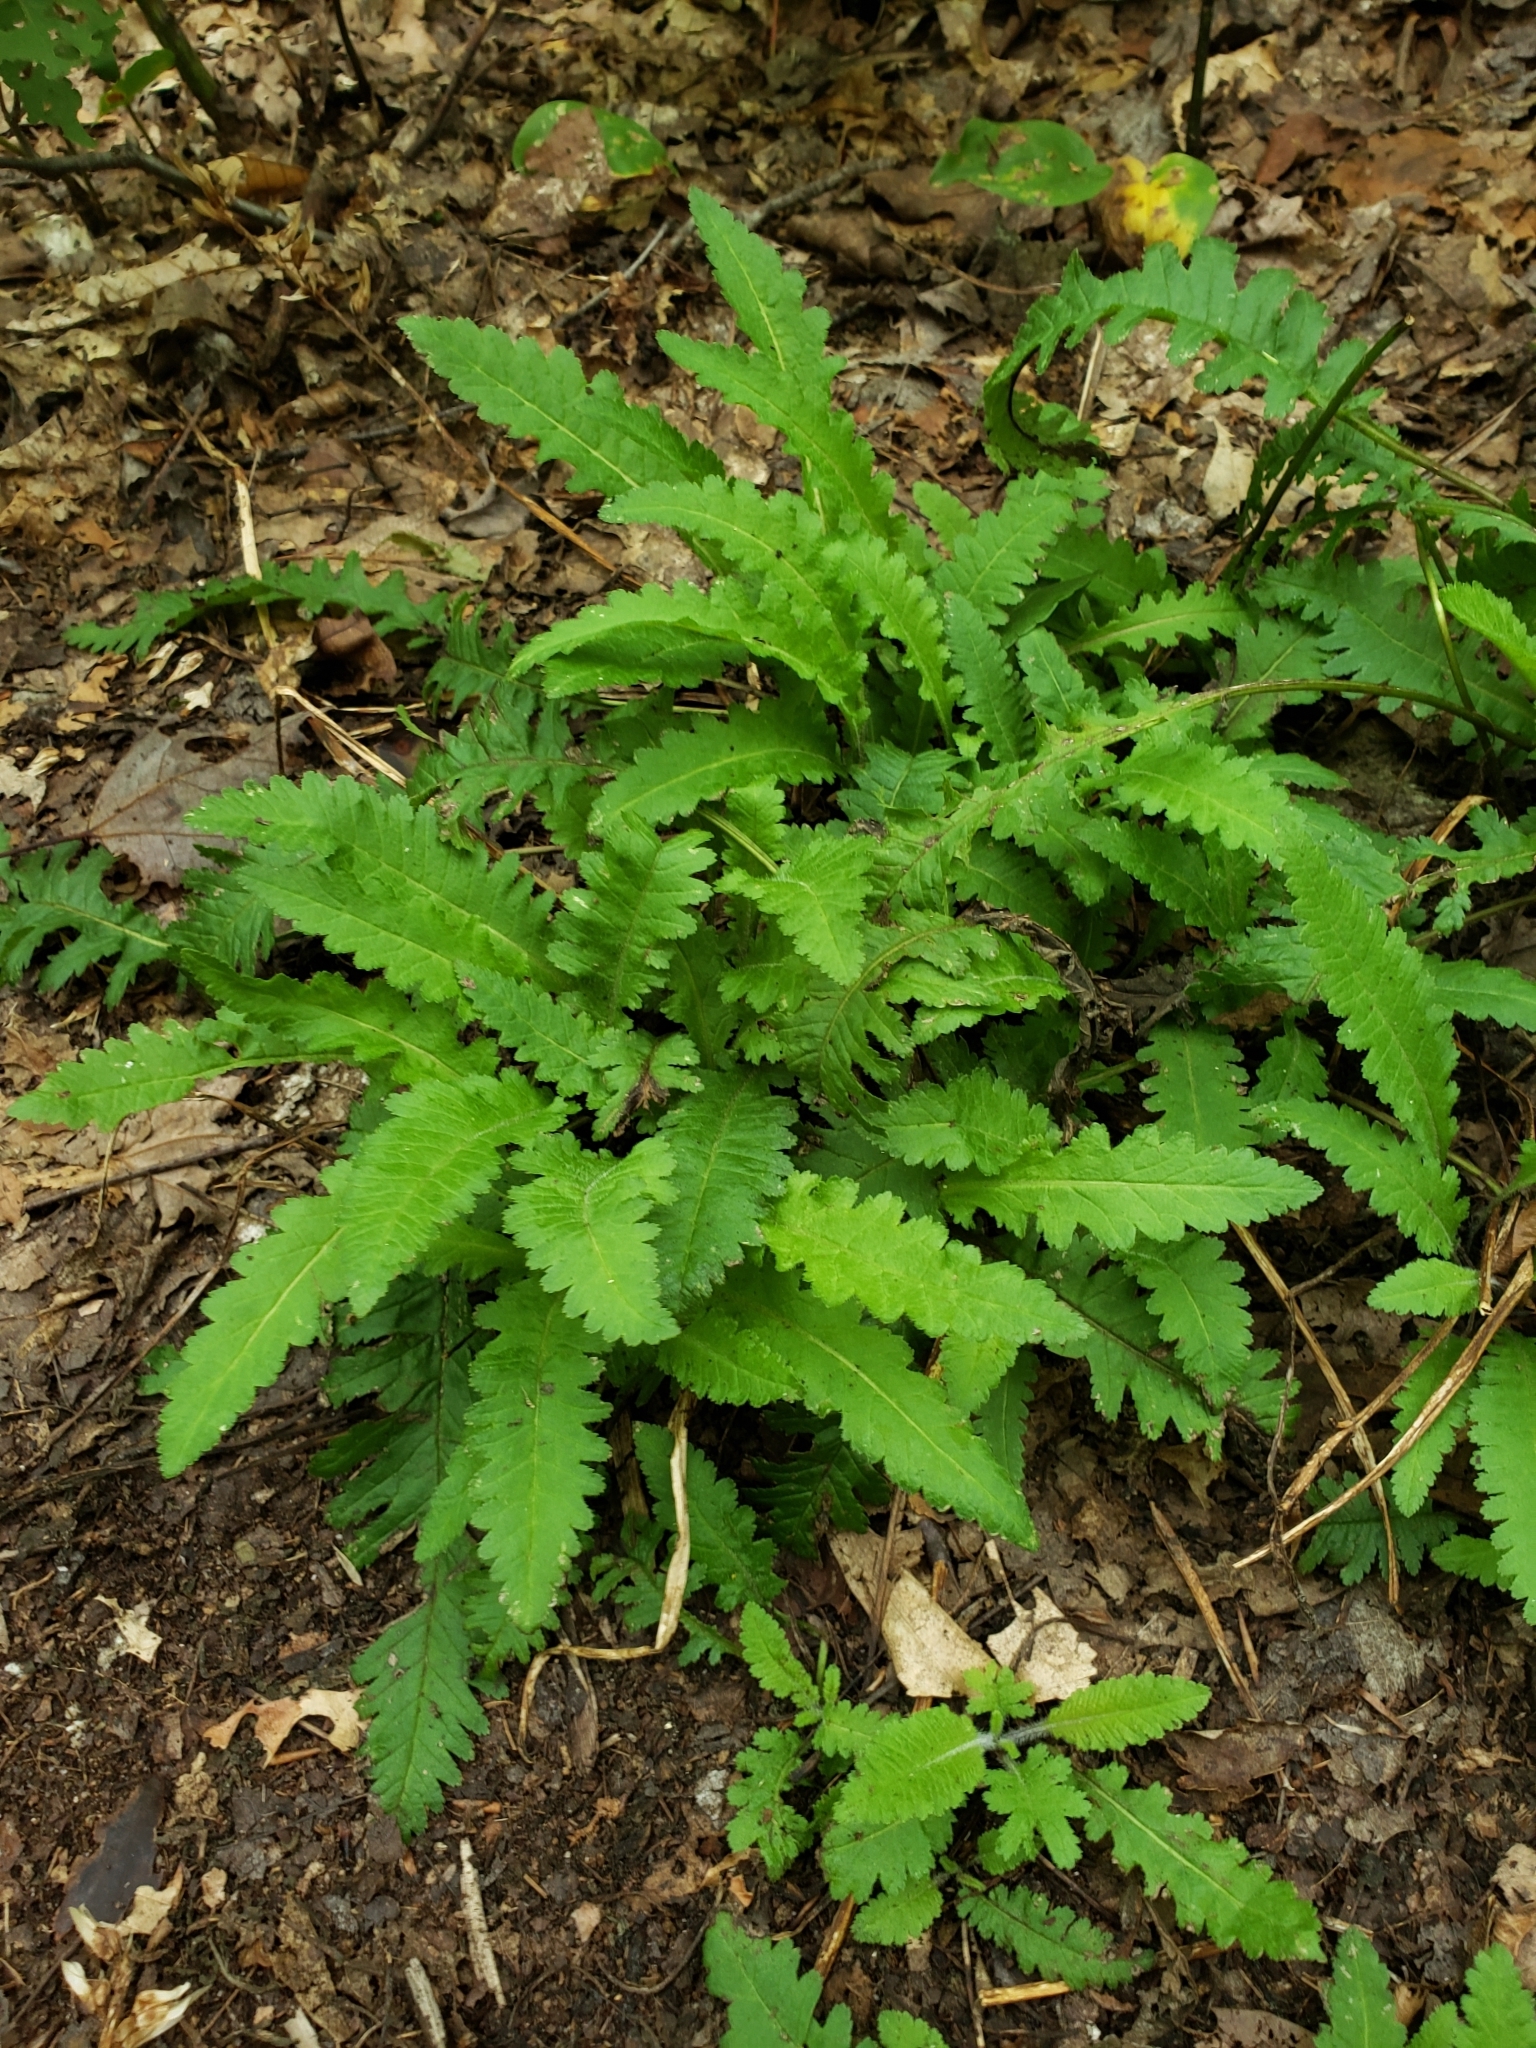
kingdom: Plantae
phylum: Tracheophyta
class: Magnoliopsida
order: Lamiales
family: Orobanchaceae
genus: Pedicularis
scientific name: Pedicularis canadensis
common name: Early lousewort
